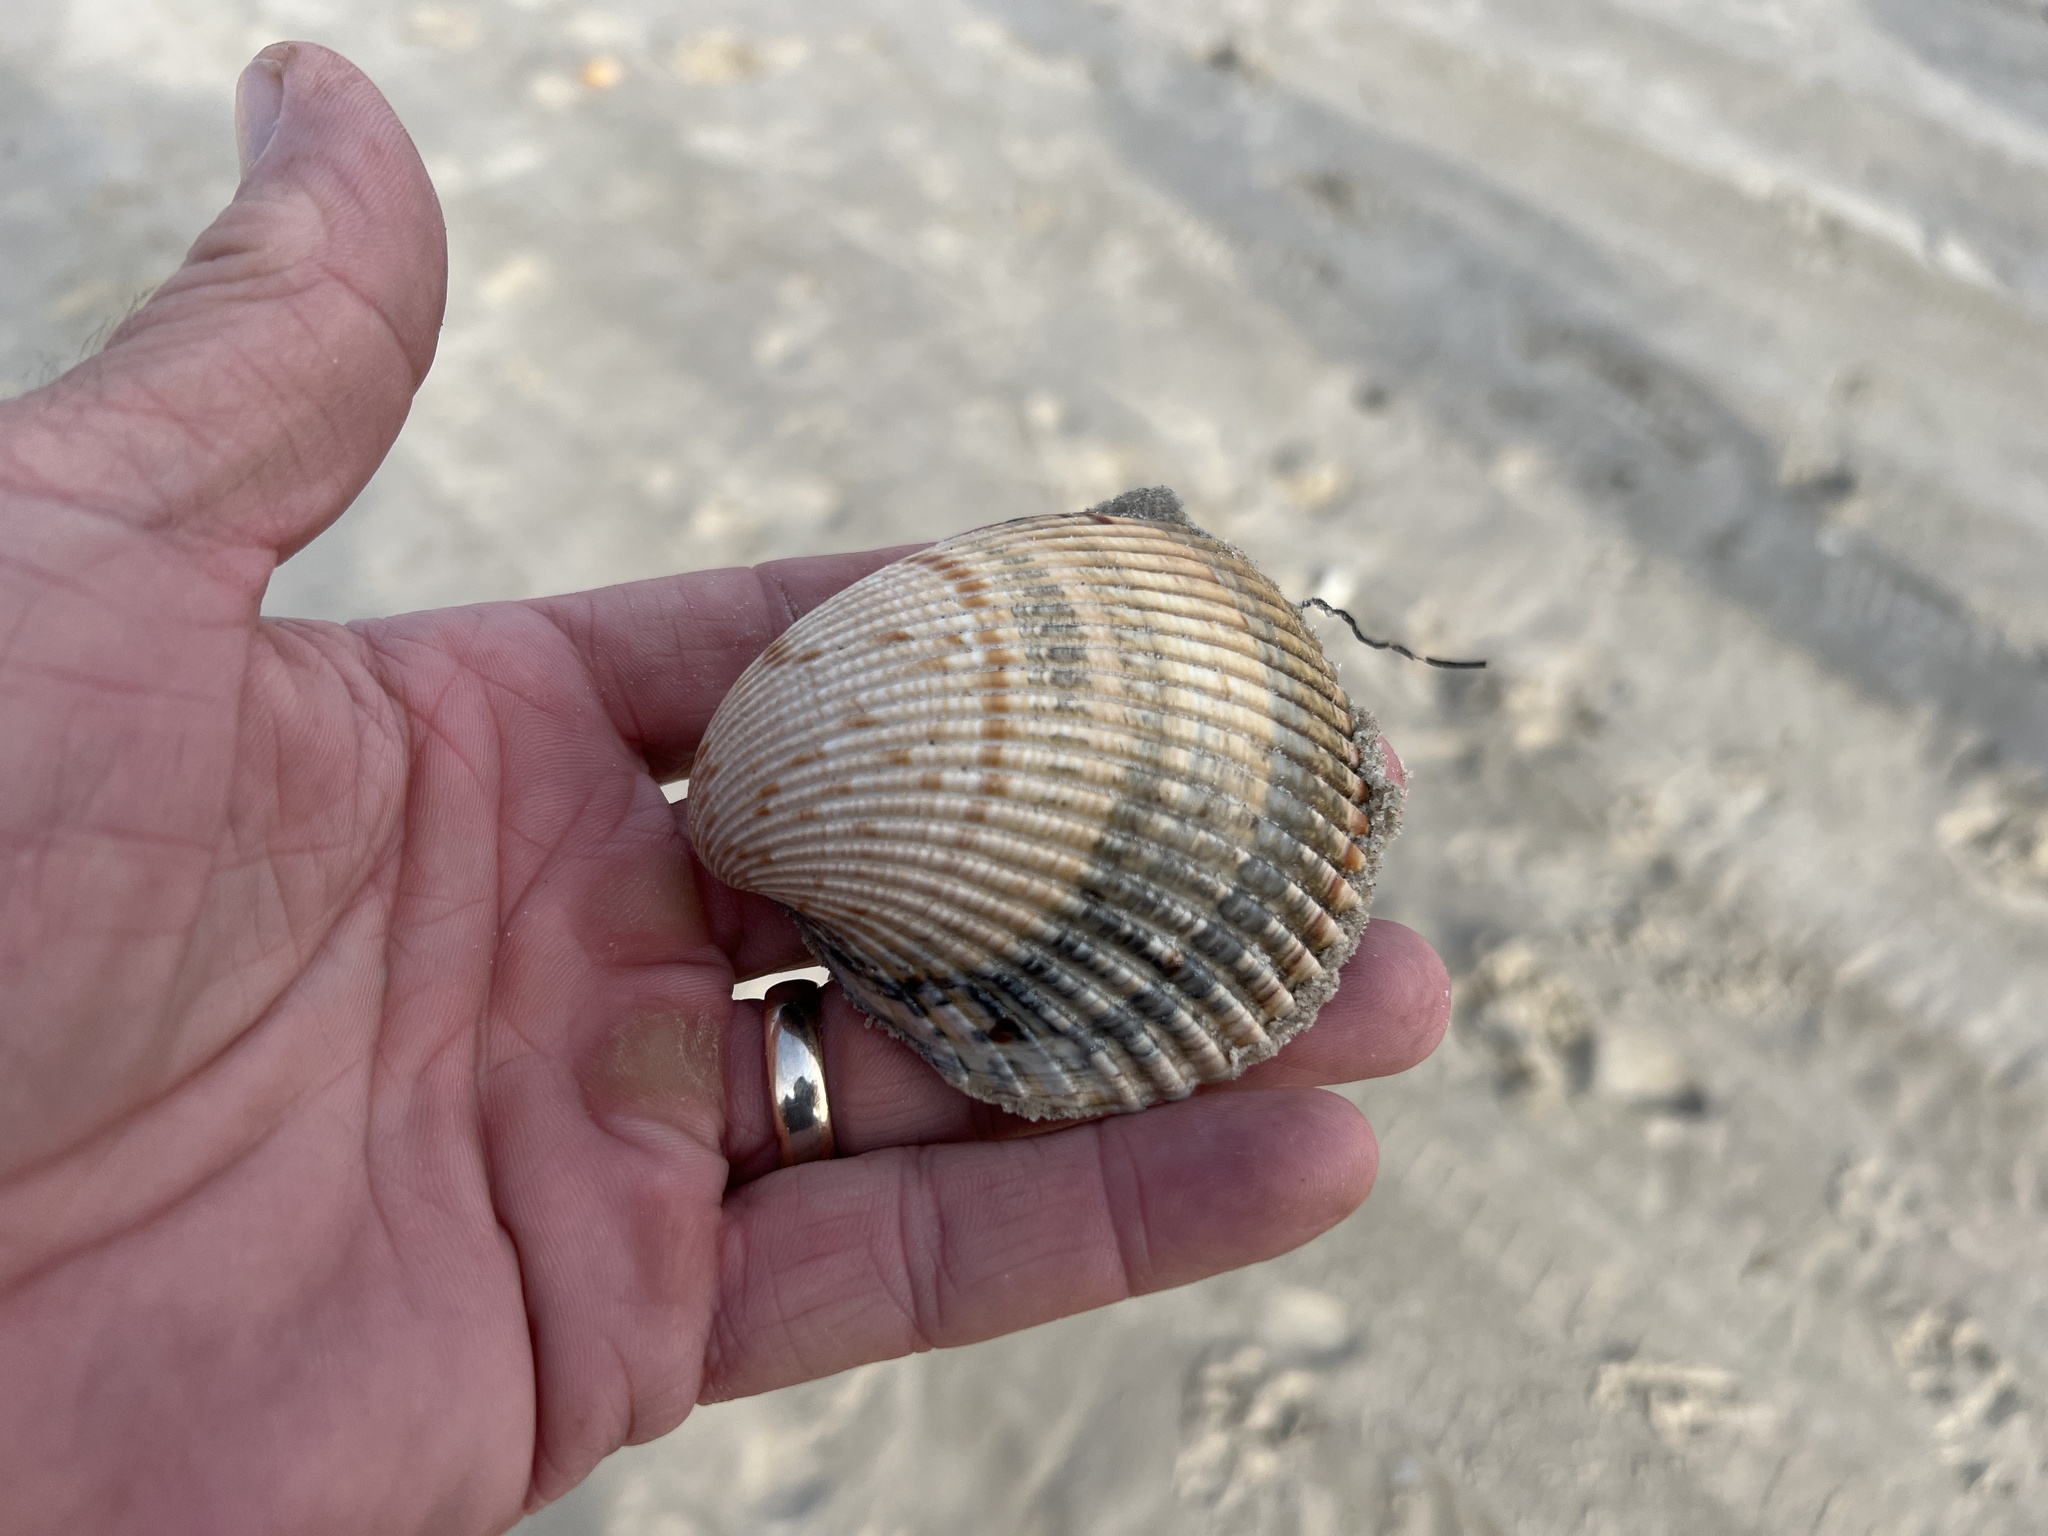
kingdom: Animalia
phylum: Mollusca
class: Bivalvia
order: Cardiida
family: Cardiidae
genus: Dinocardium
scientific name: Dinocardium robustum
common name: Atlantic giant cockle
